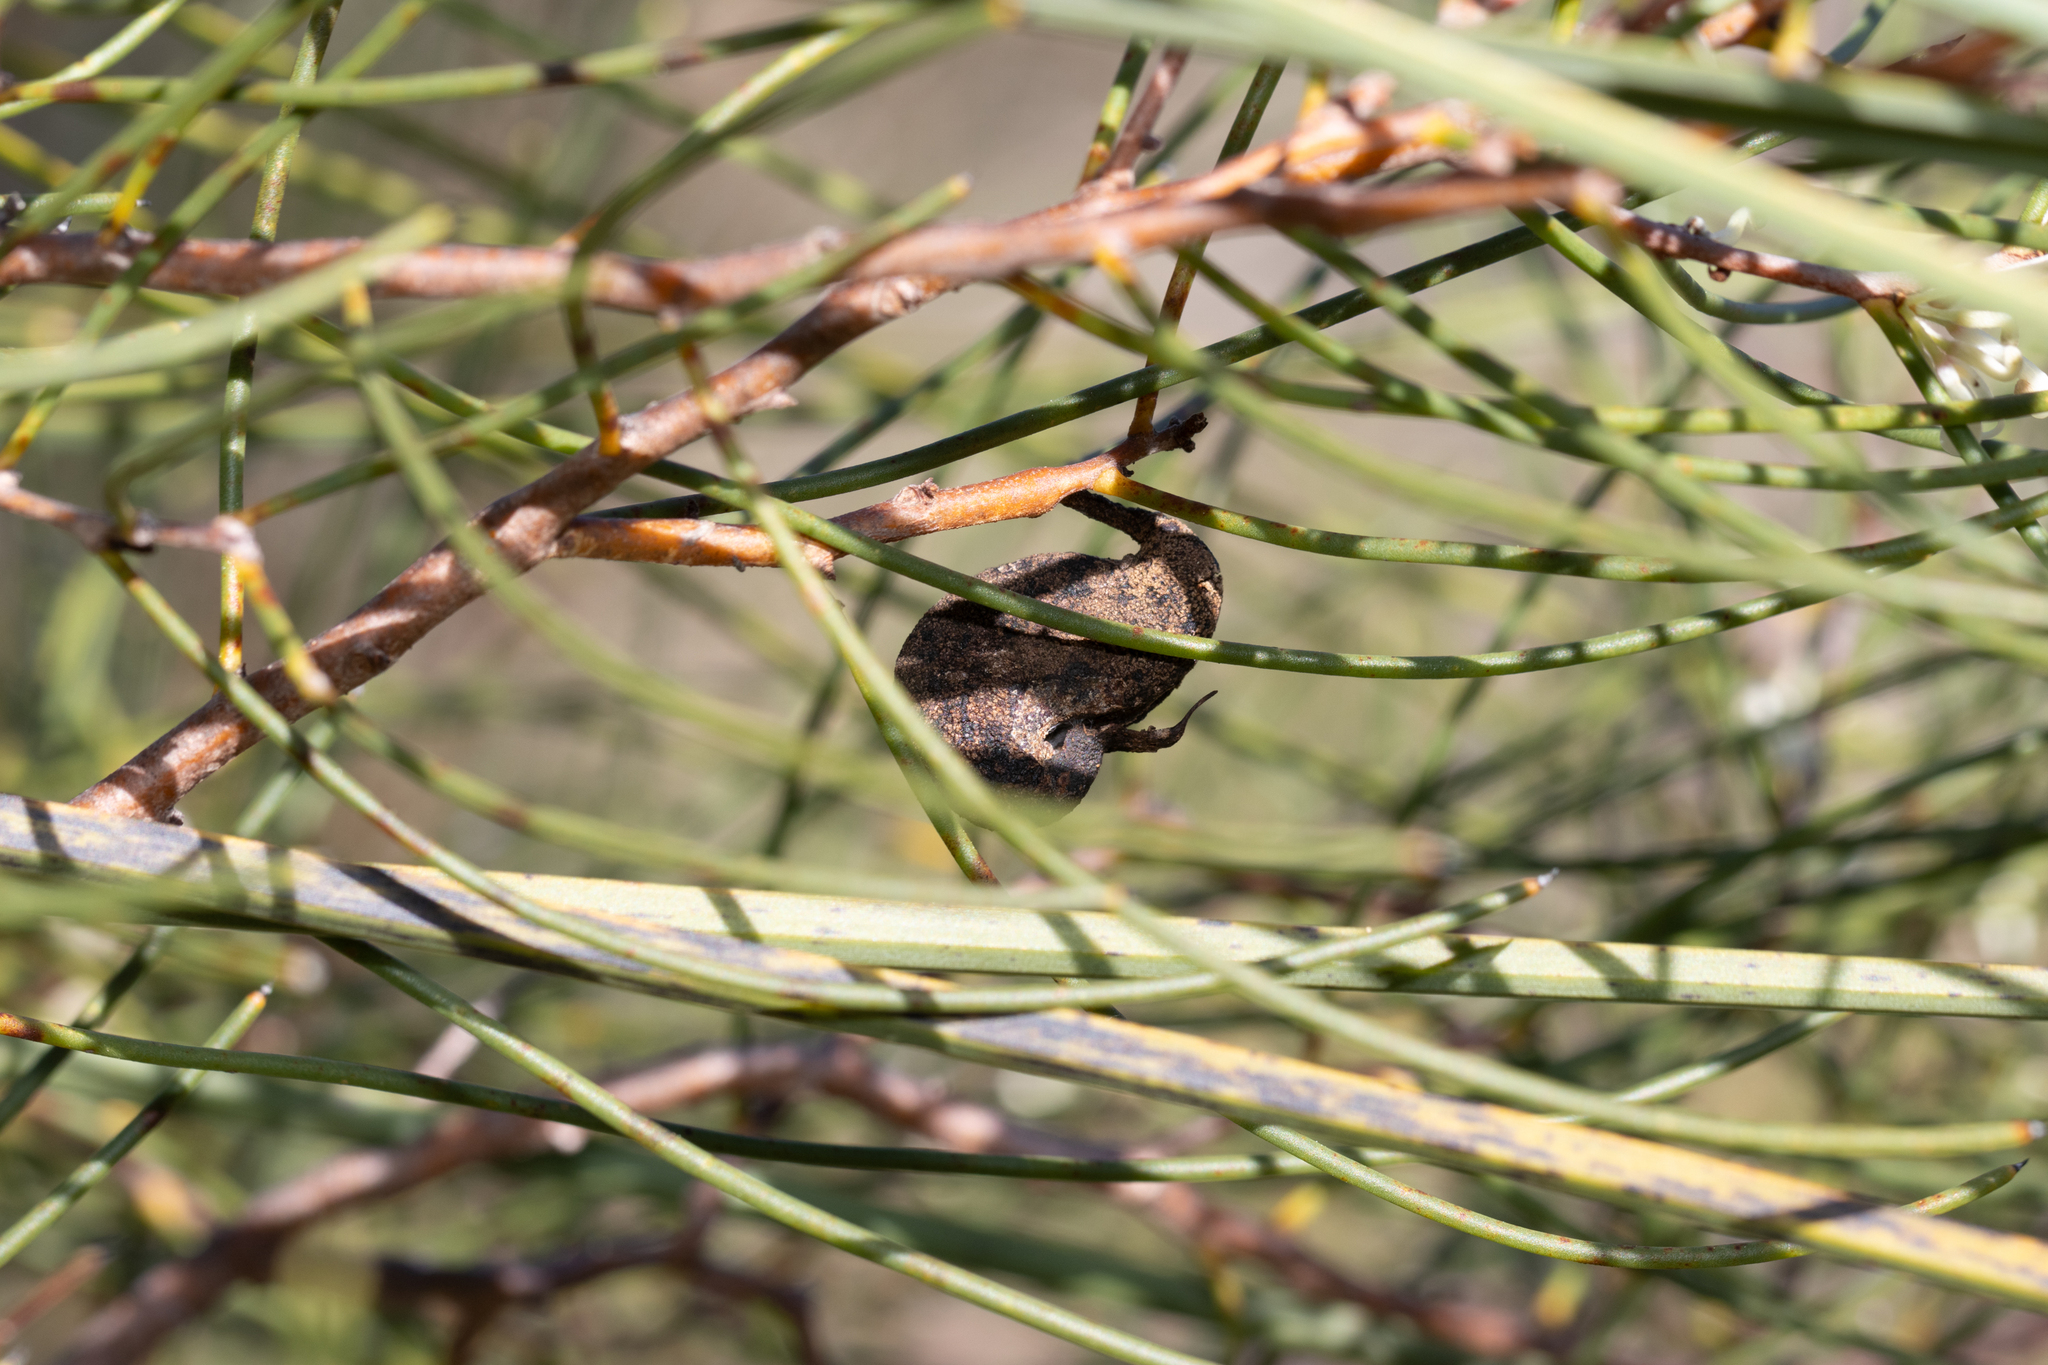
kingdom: Plantae
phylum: Tracheophyta
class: Magnoliopsida
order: Proteales
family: Proteaceae
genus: Hakea
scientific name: Hakea rostrata
